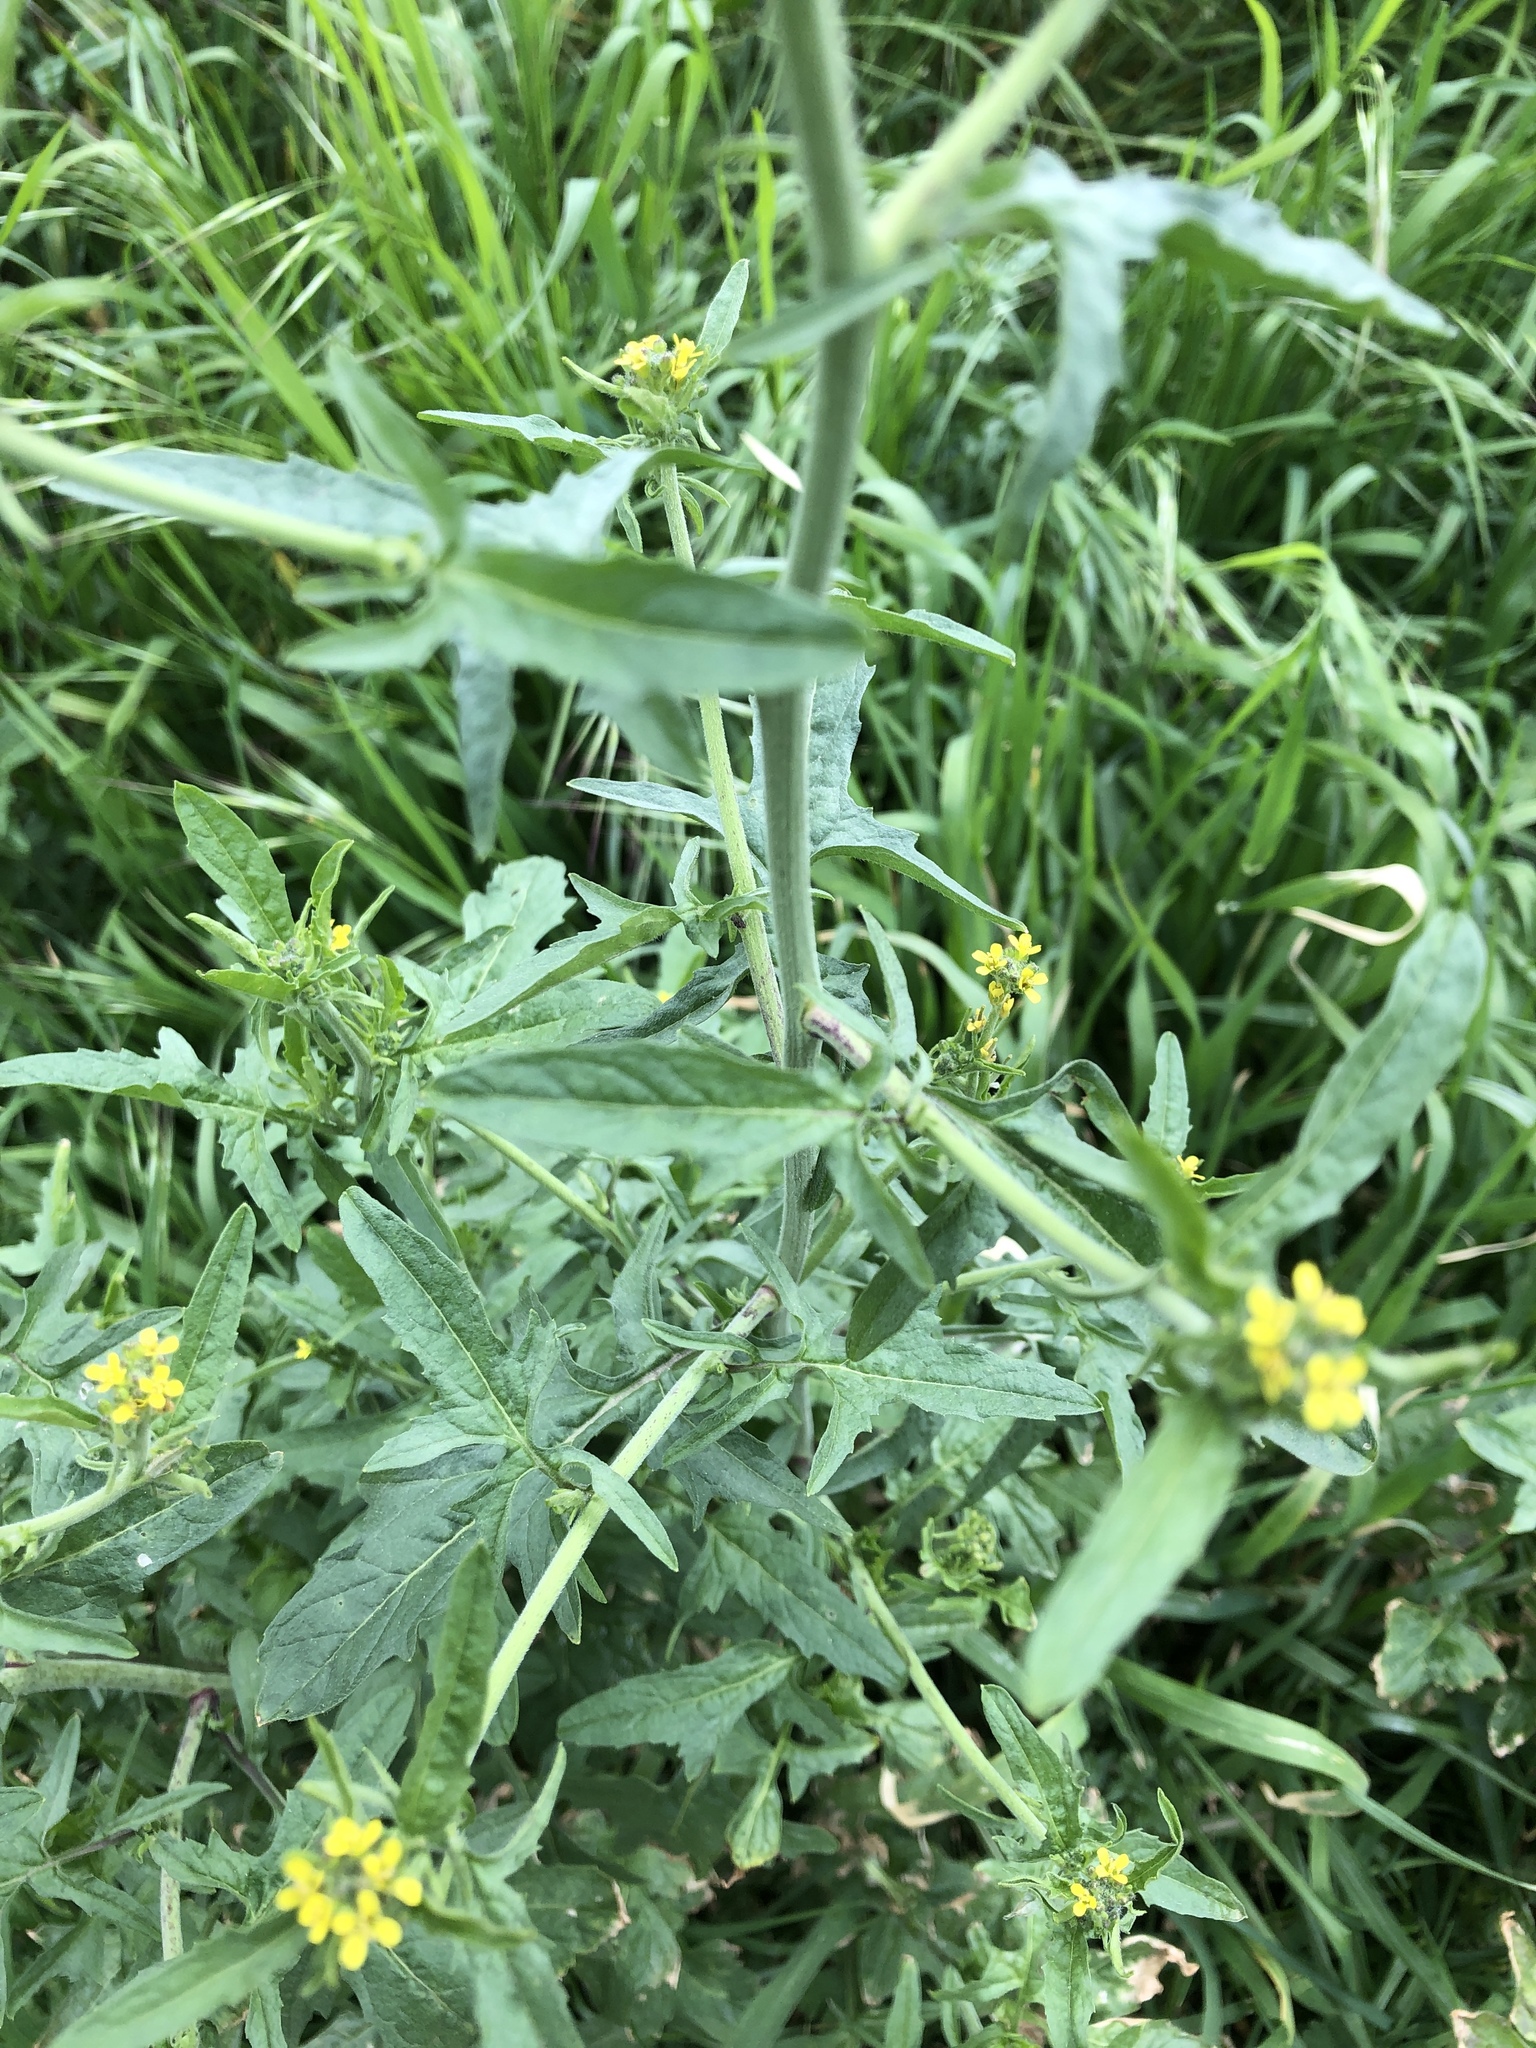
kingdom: Plantae
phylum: Tracheophyta
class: Magnoliopsida
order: Brassicales
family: Brassicaceae
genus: Sisymbrium
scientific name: Sisymbrium officinale
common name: Hedge mustard
